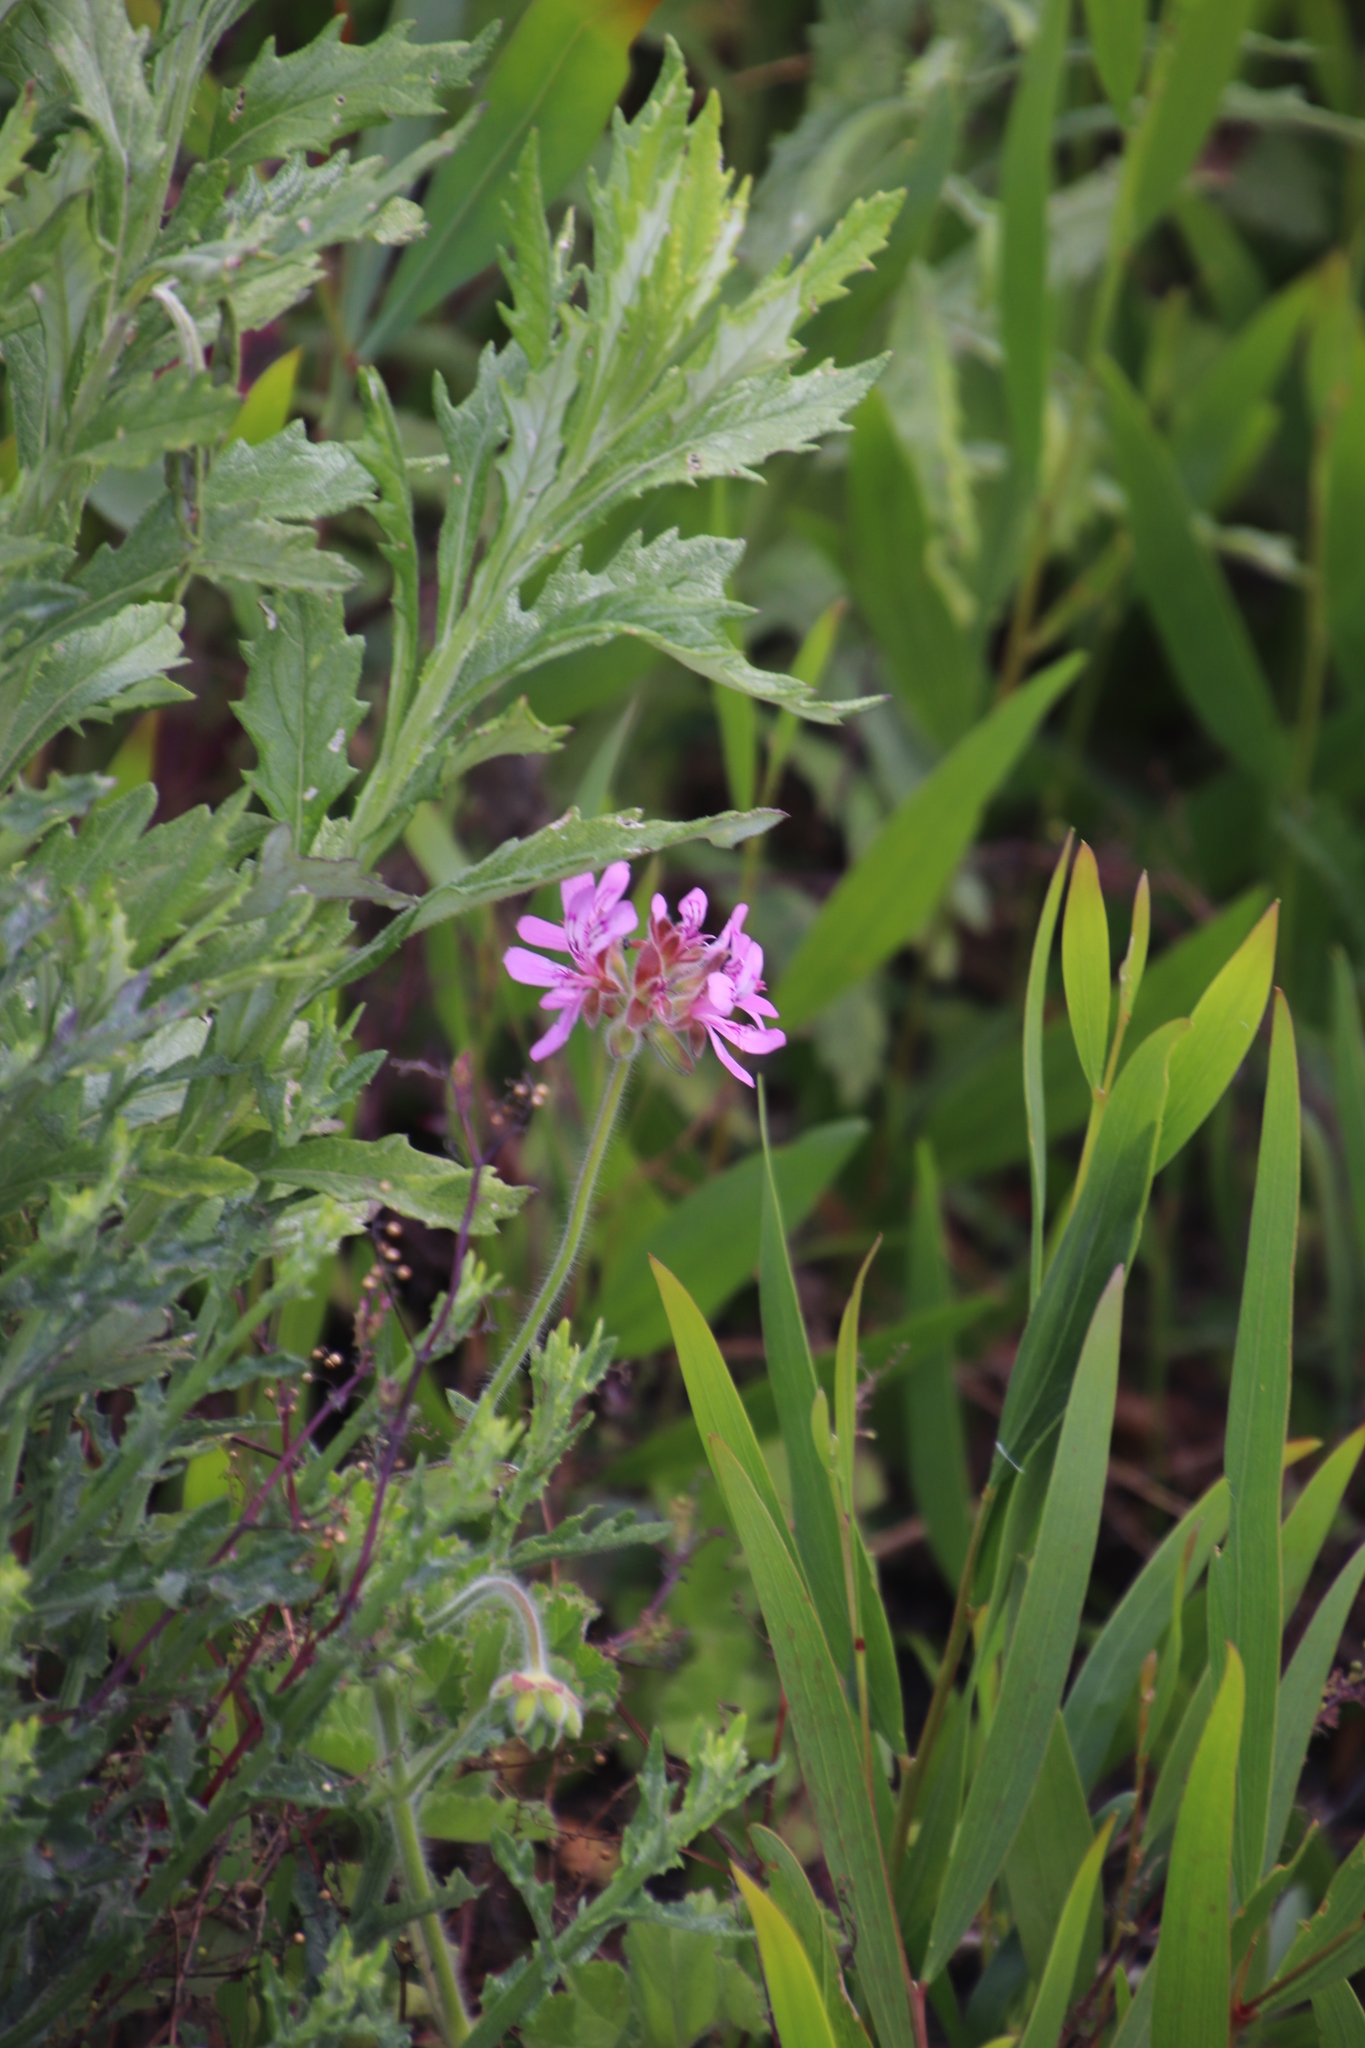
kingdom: Plantae
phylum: Tracheophyta
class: Magnoliopsida
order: Geraniales
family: Geraniaceae
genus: Pelargonium
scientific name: Pelargonium capitatum
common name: Rose scented geranium
